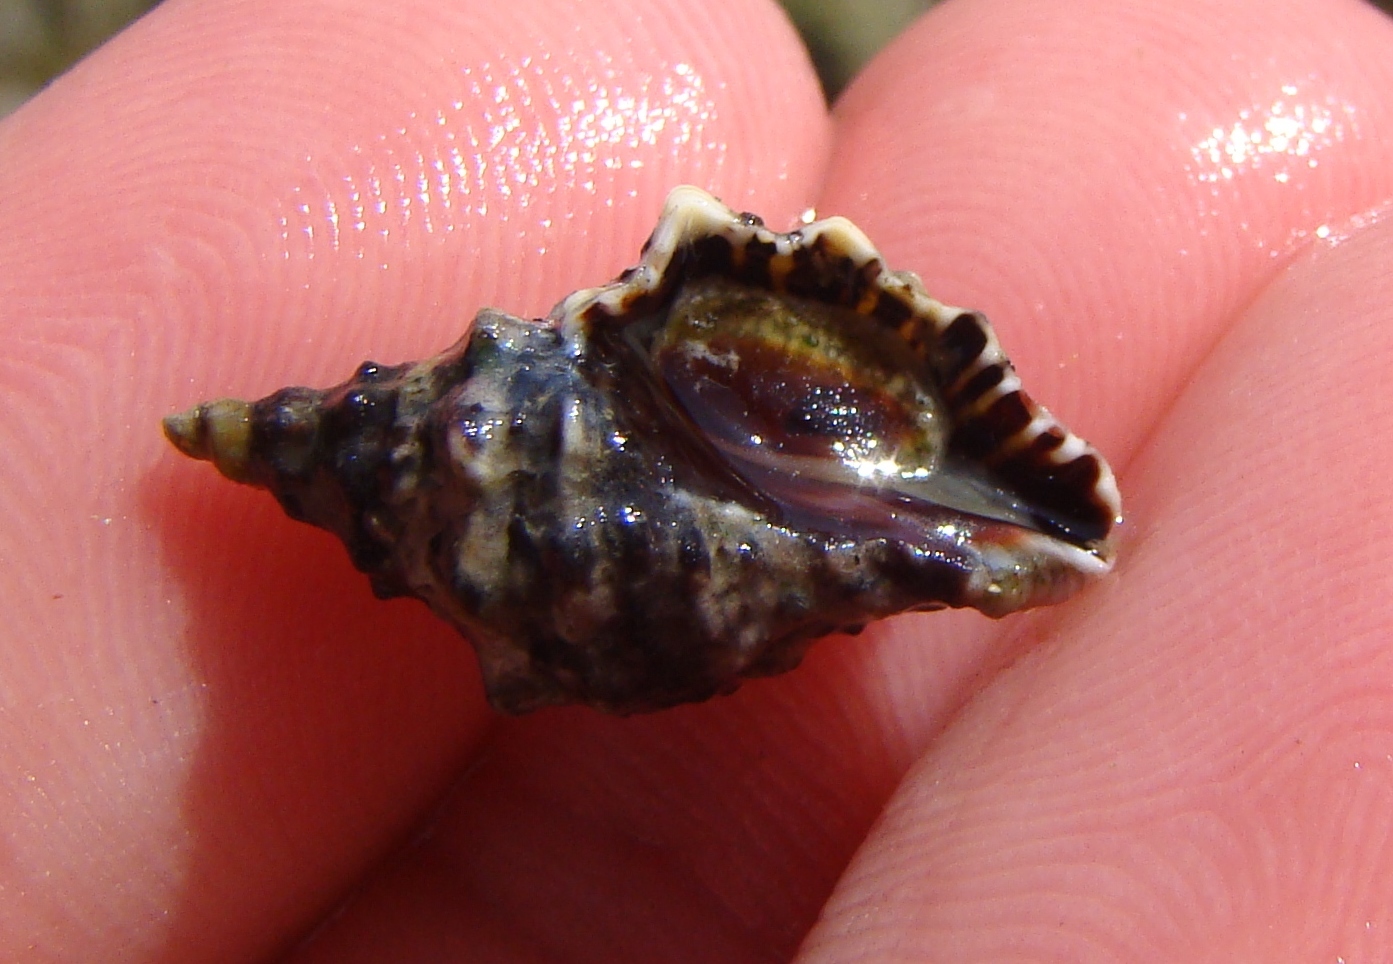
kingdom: Animalia
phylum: Mollusca
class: Gastropoda
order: Neogastropoda
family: Muricidae
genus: Haustrum
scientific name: Haustrum scobina
